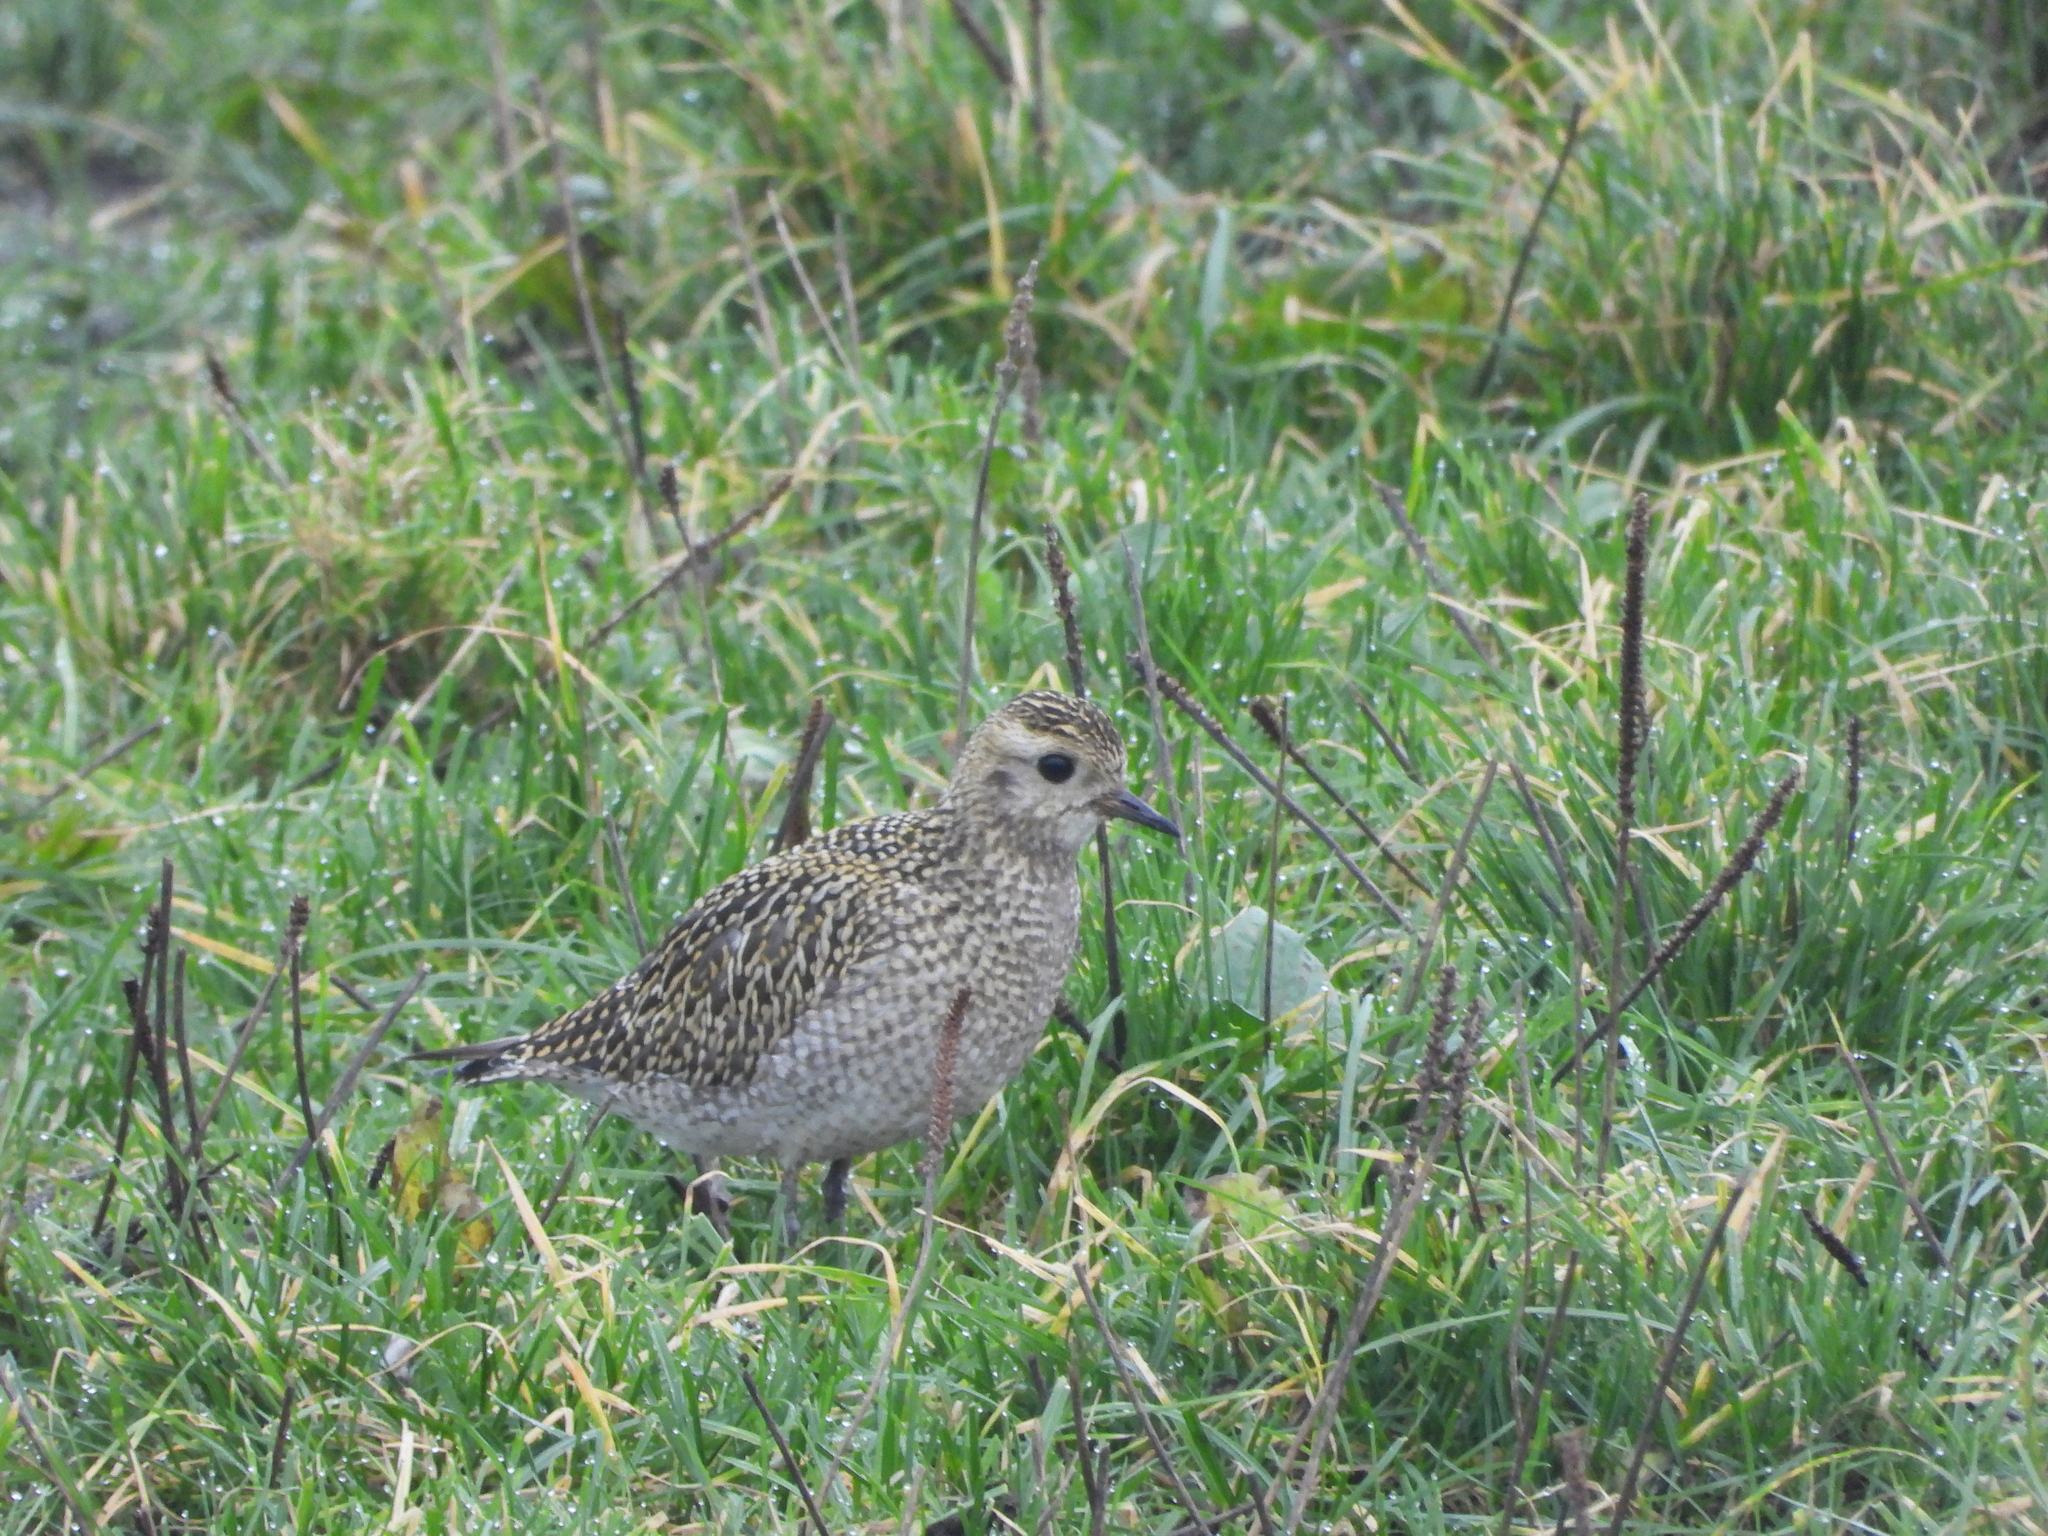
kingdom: Animalia
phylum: Chordata
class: Aves
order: Charadriiformes
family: Charadriidae
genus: Pluvialis
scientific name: Pluvialis apricaria
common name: European golden plover
